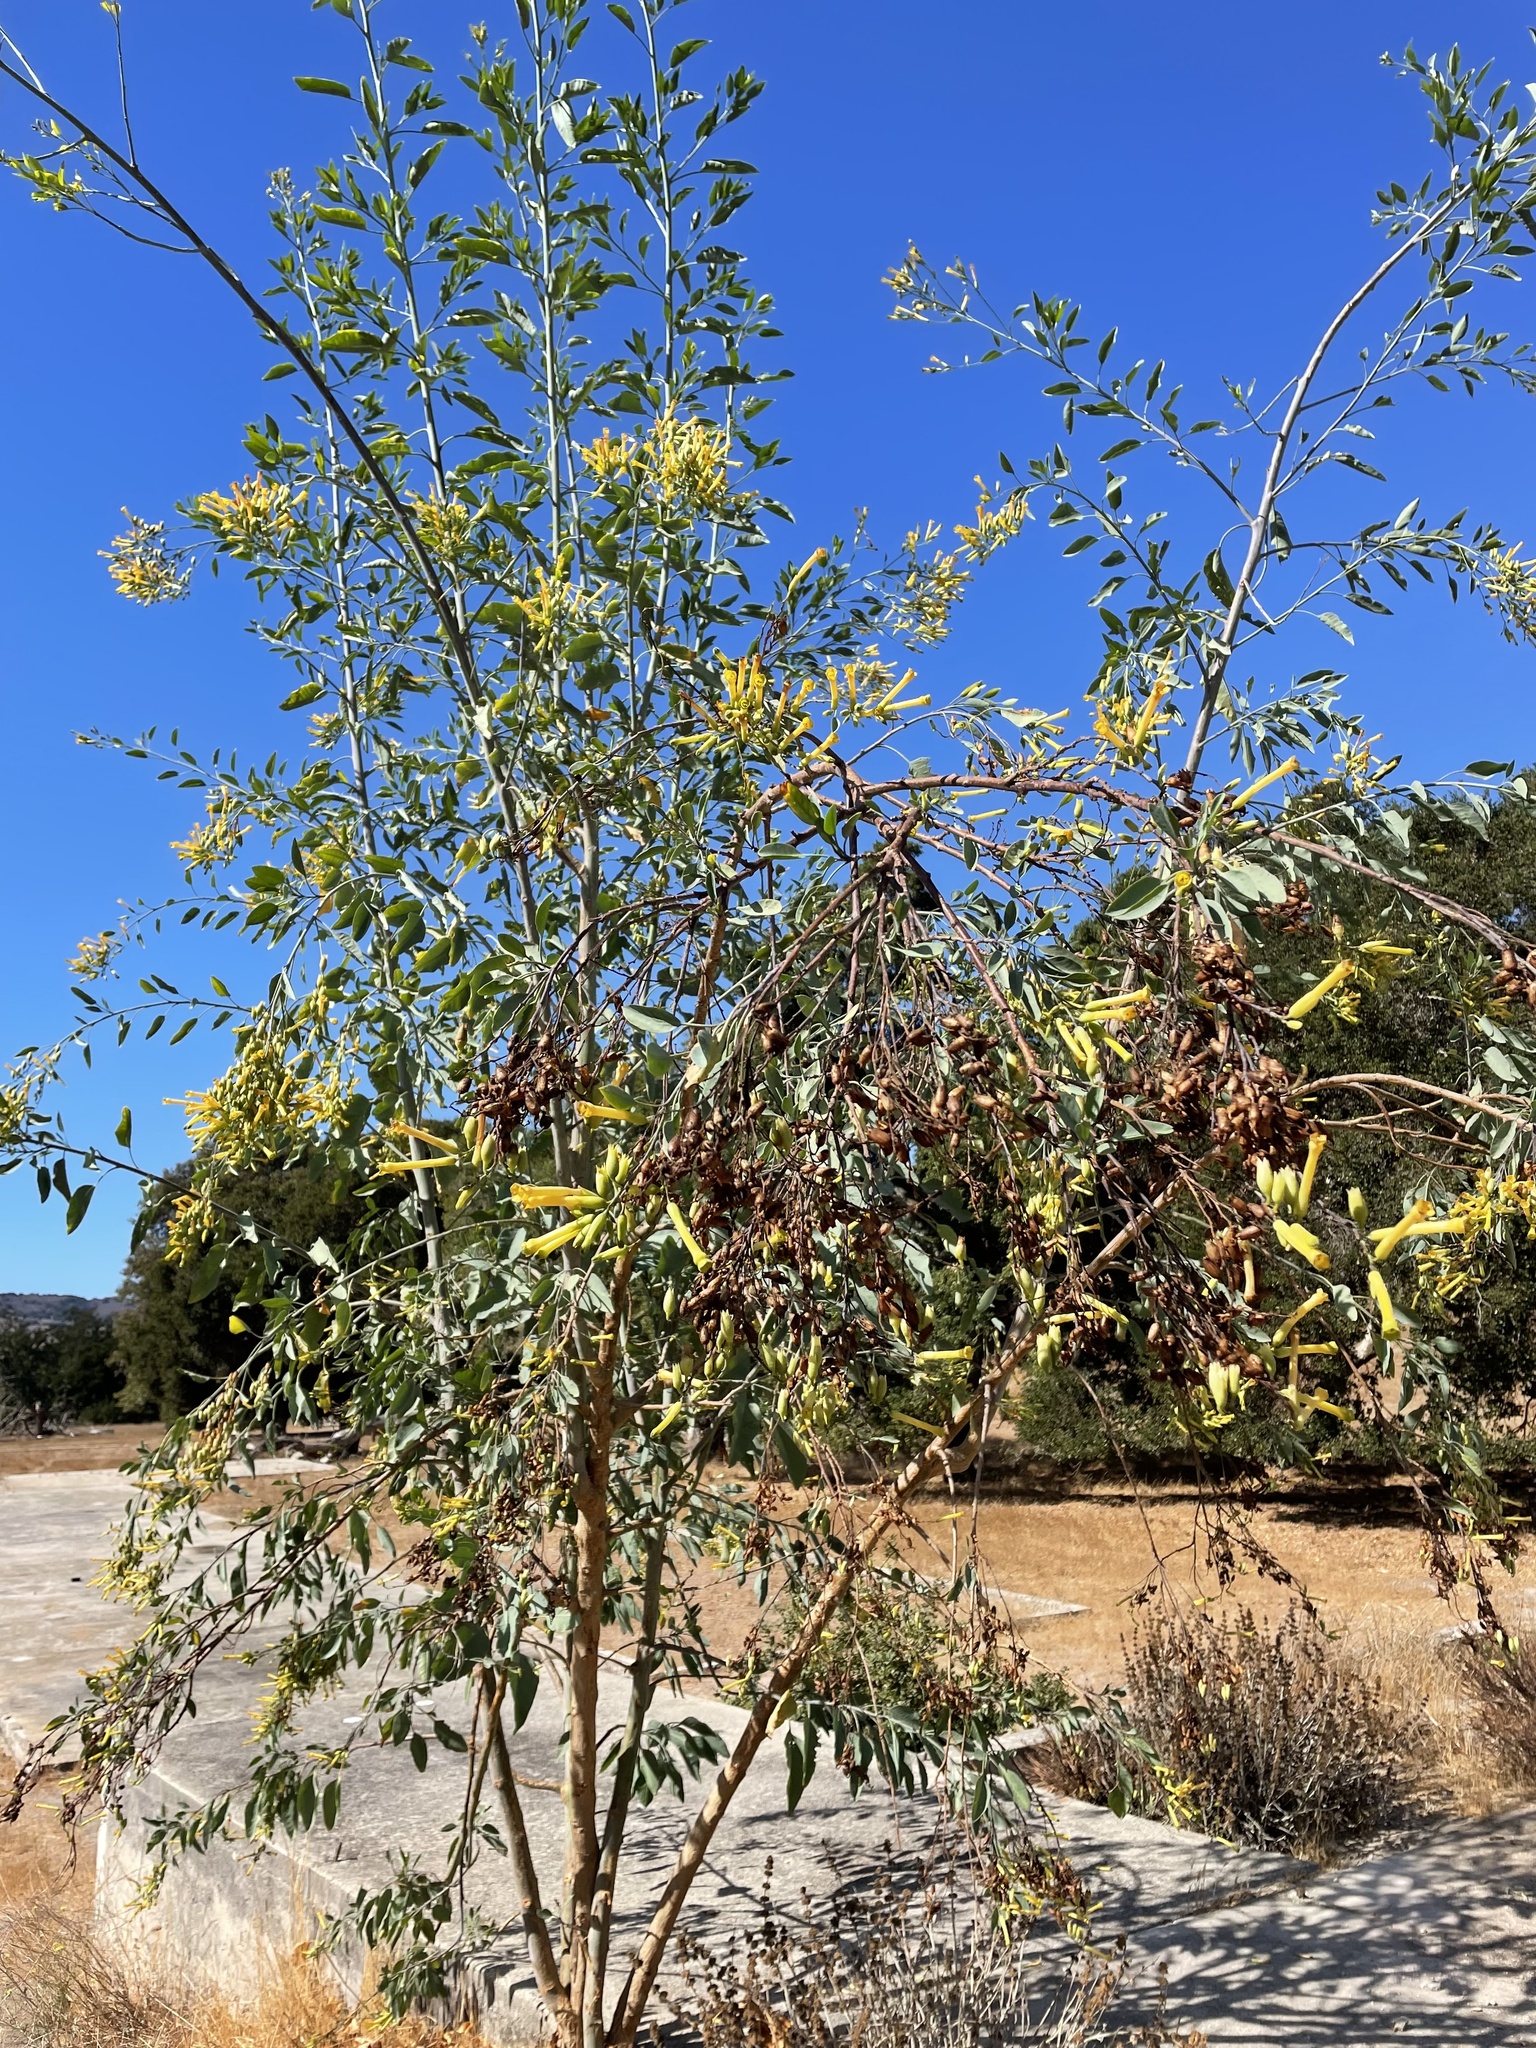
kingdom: Plantae
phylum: Tracheophyta
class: Magnoliopsida
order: Solanales
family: Solanaceae
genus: Nicotiana
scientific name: Nicotiana glauca
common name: Tree tobacco
